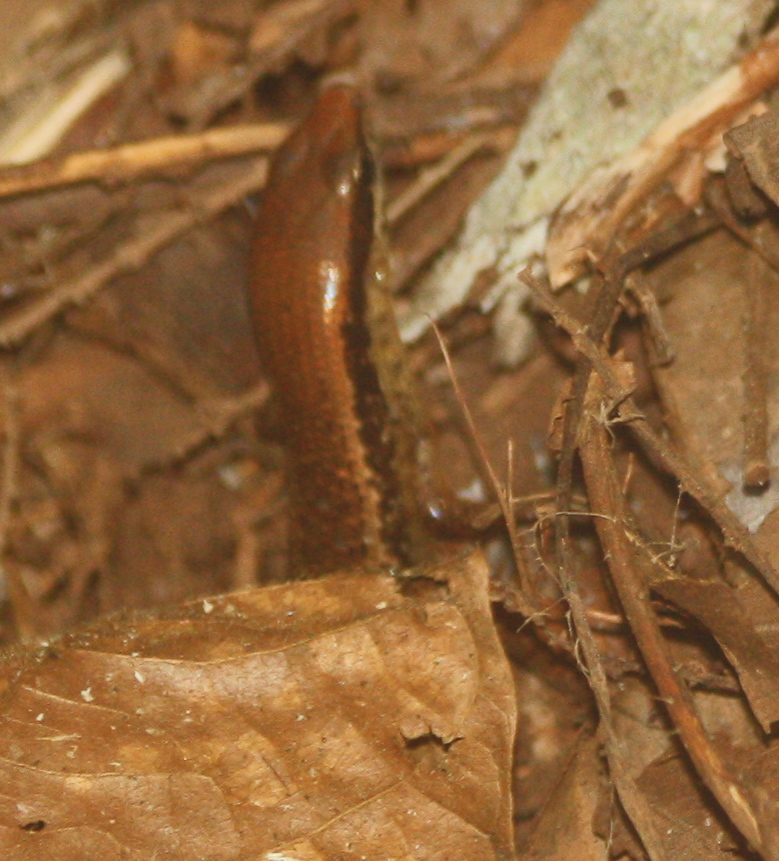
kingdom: Animalia
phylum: Chordata
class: Squamata
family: Scincidae
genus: Marisora
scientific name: Marisora unimarginata
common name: Central american mabuya
